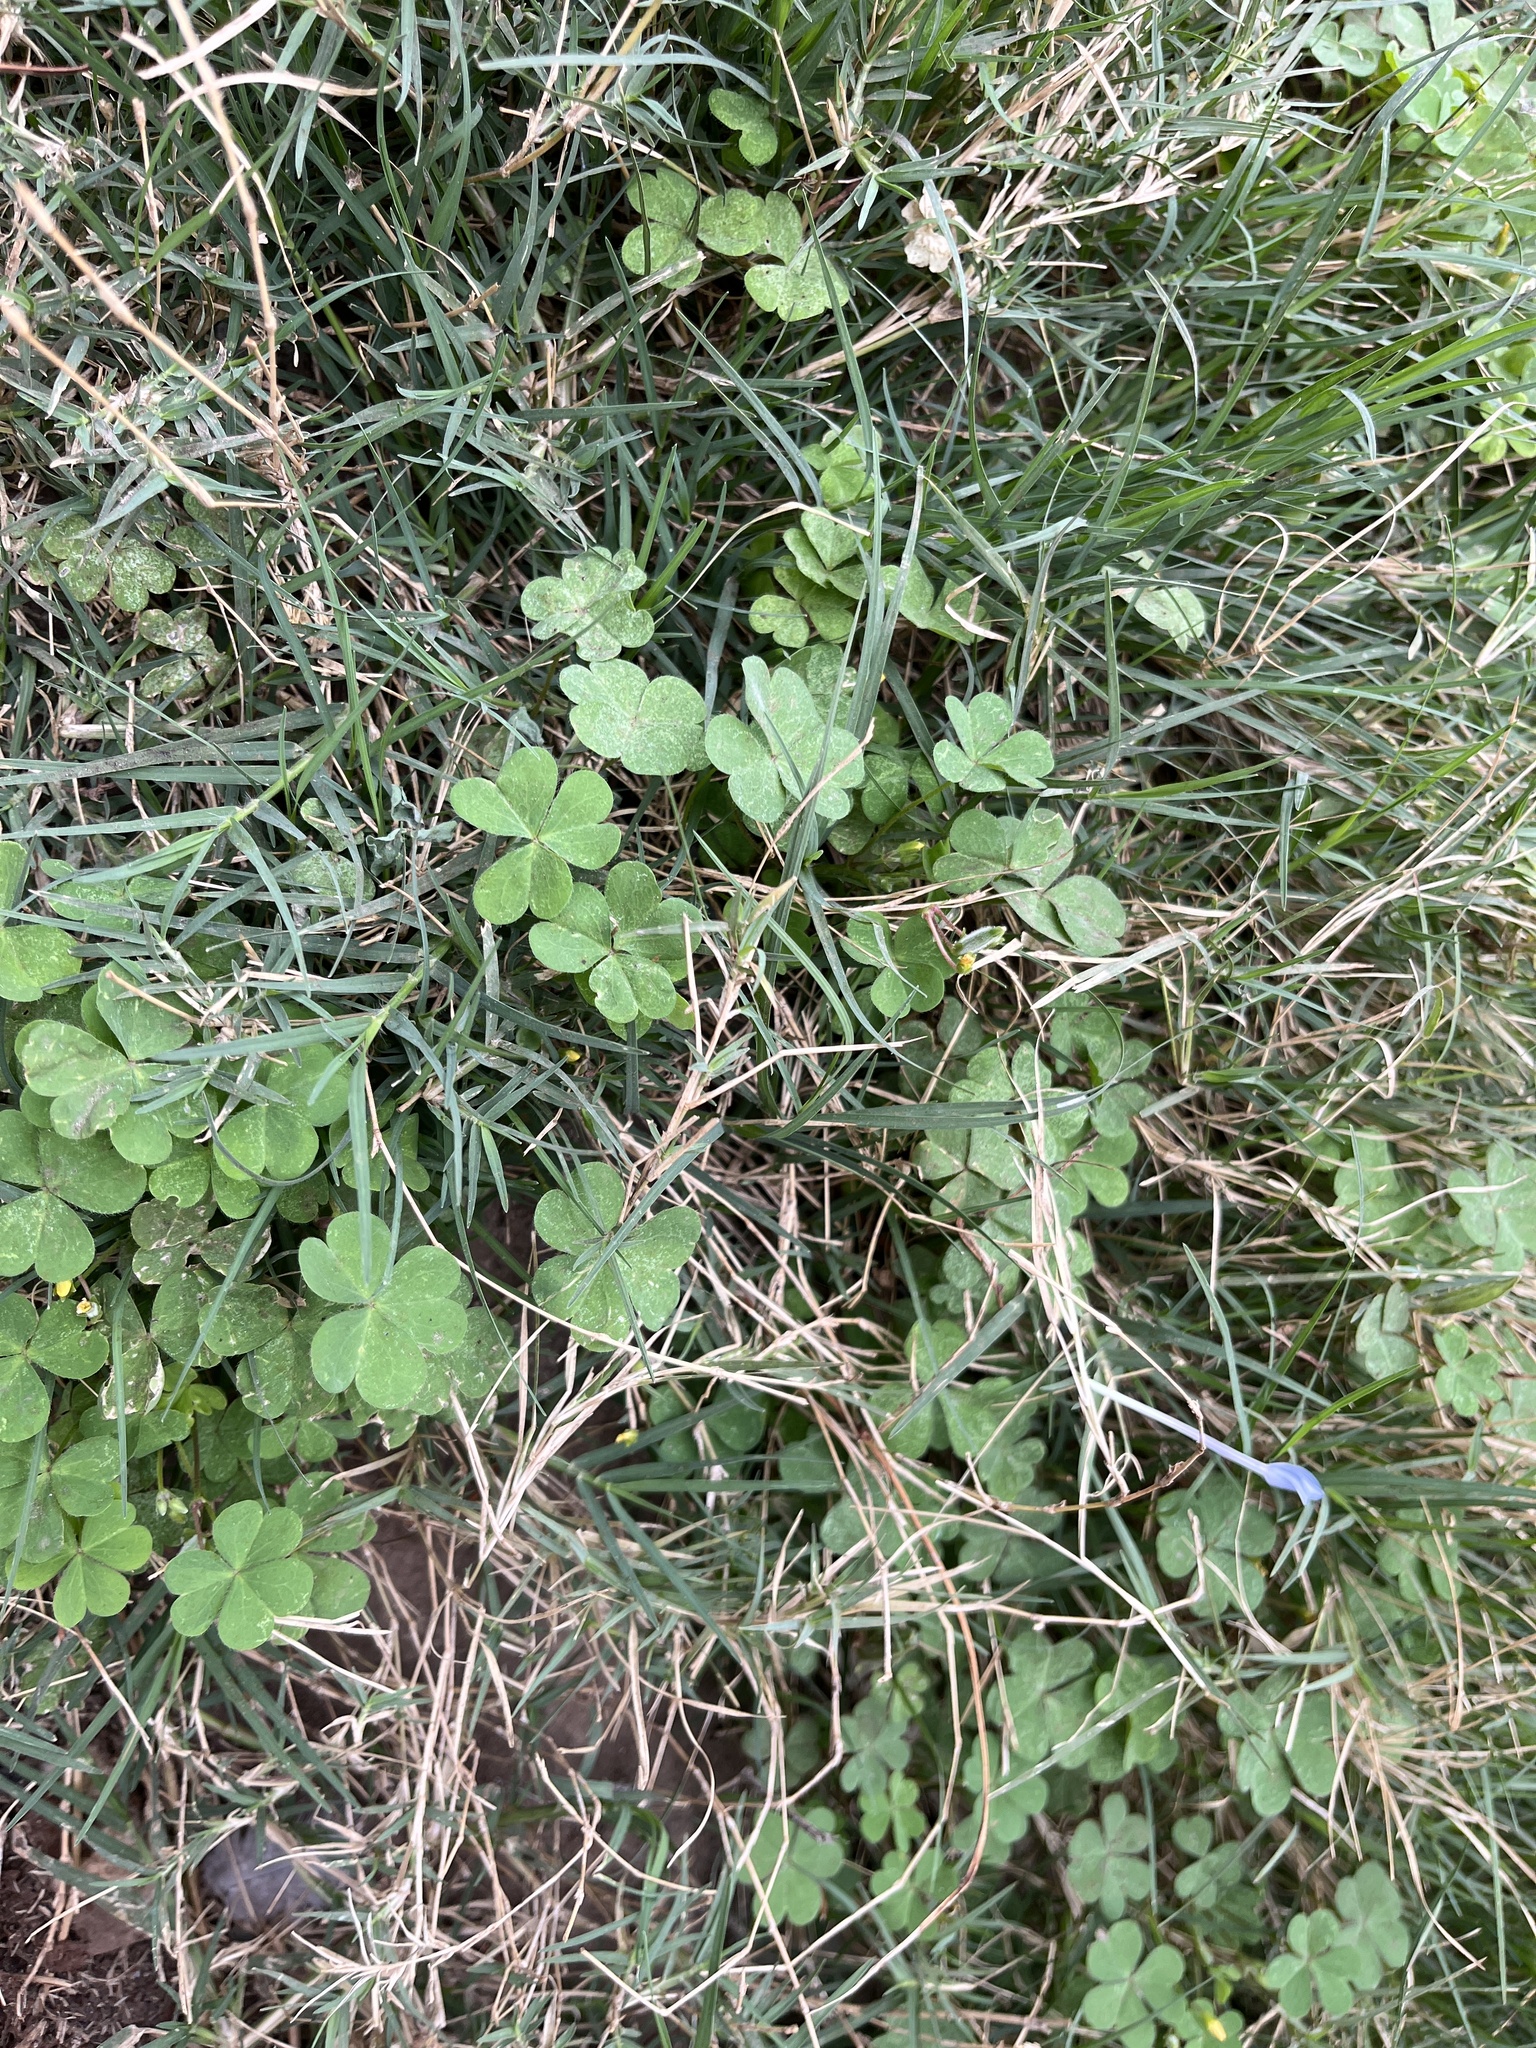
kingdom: Plantae
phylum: Tracheophyta
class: Magnoliopsida
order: Oxalidales
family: Oxalidaceae
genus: Oxalis
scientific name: Oxalis corniculata
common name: Procumbent yellow-sorrel
